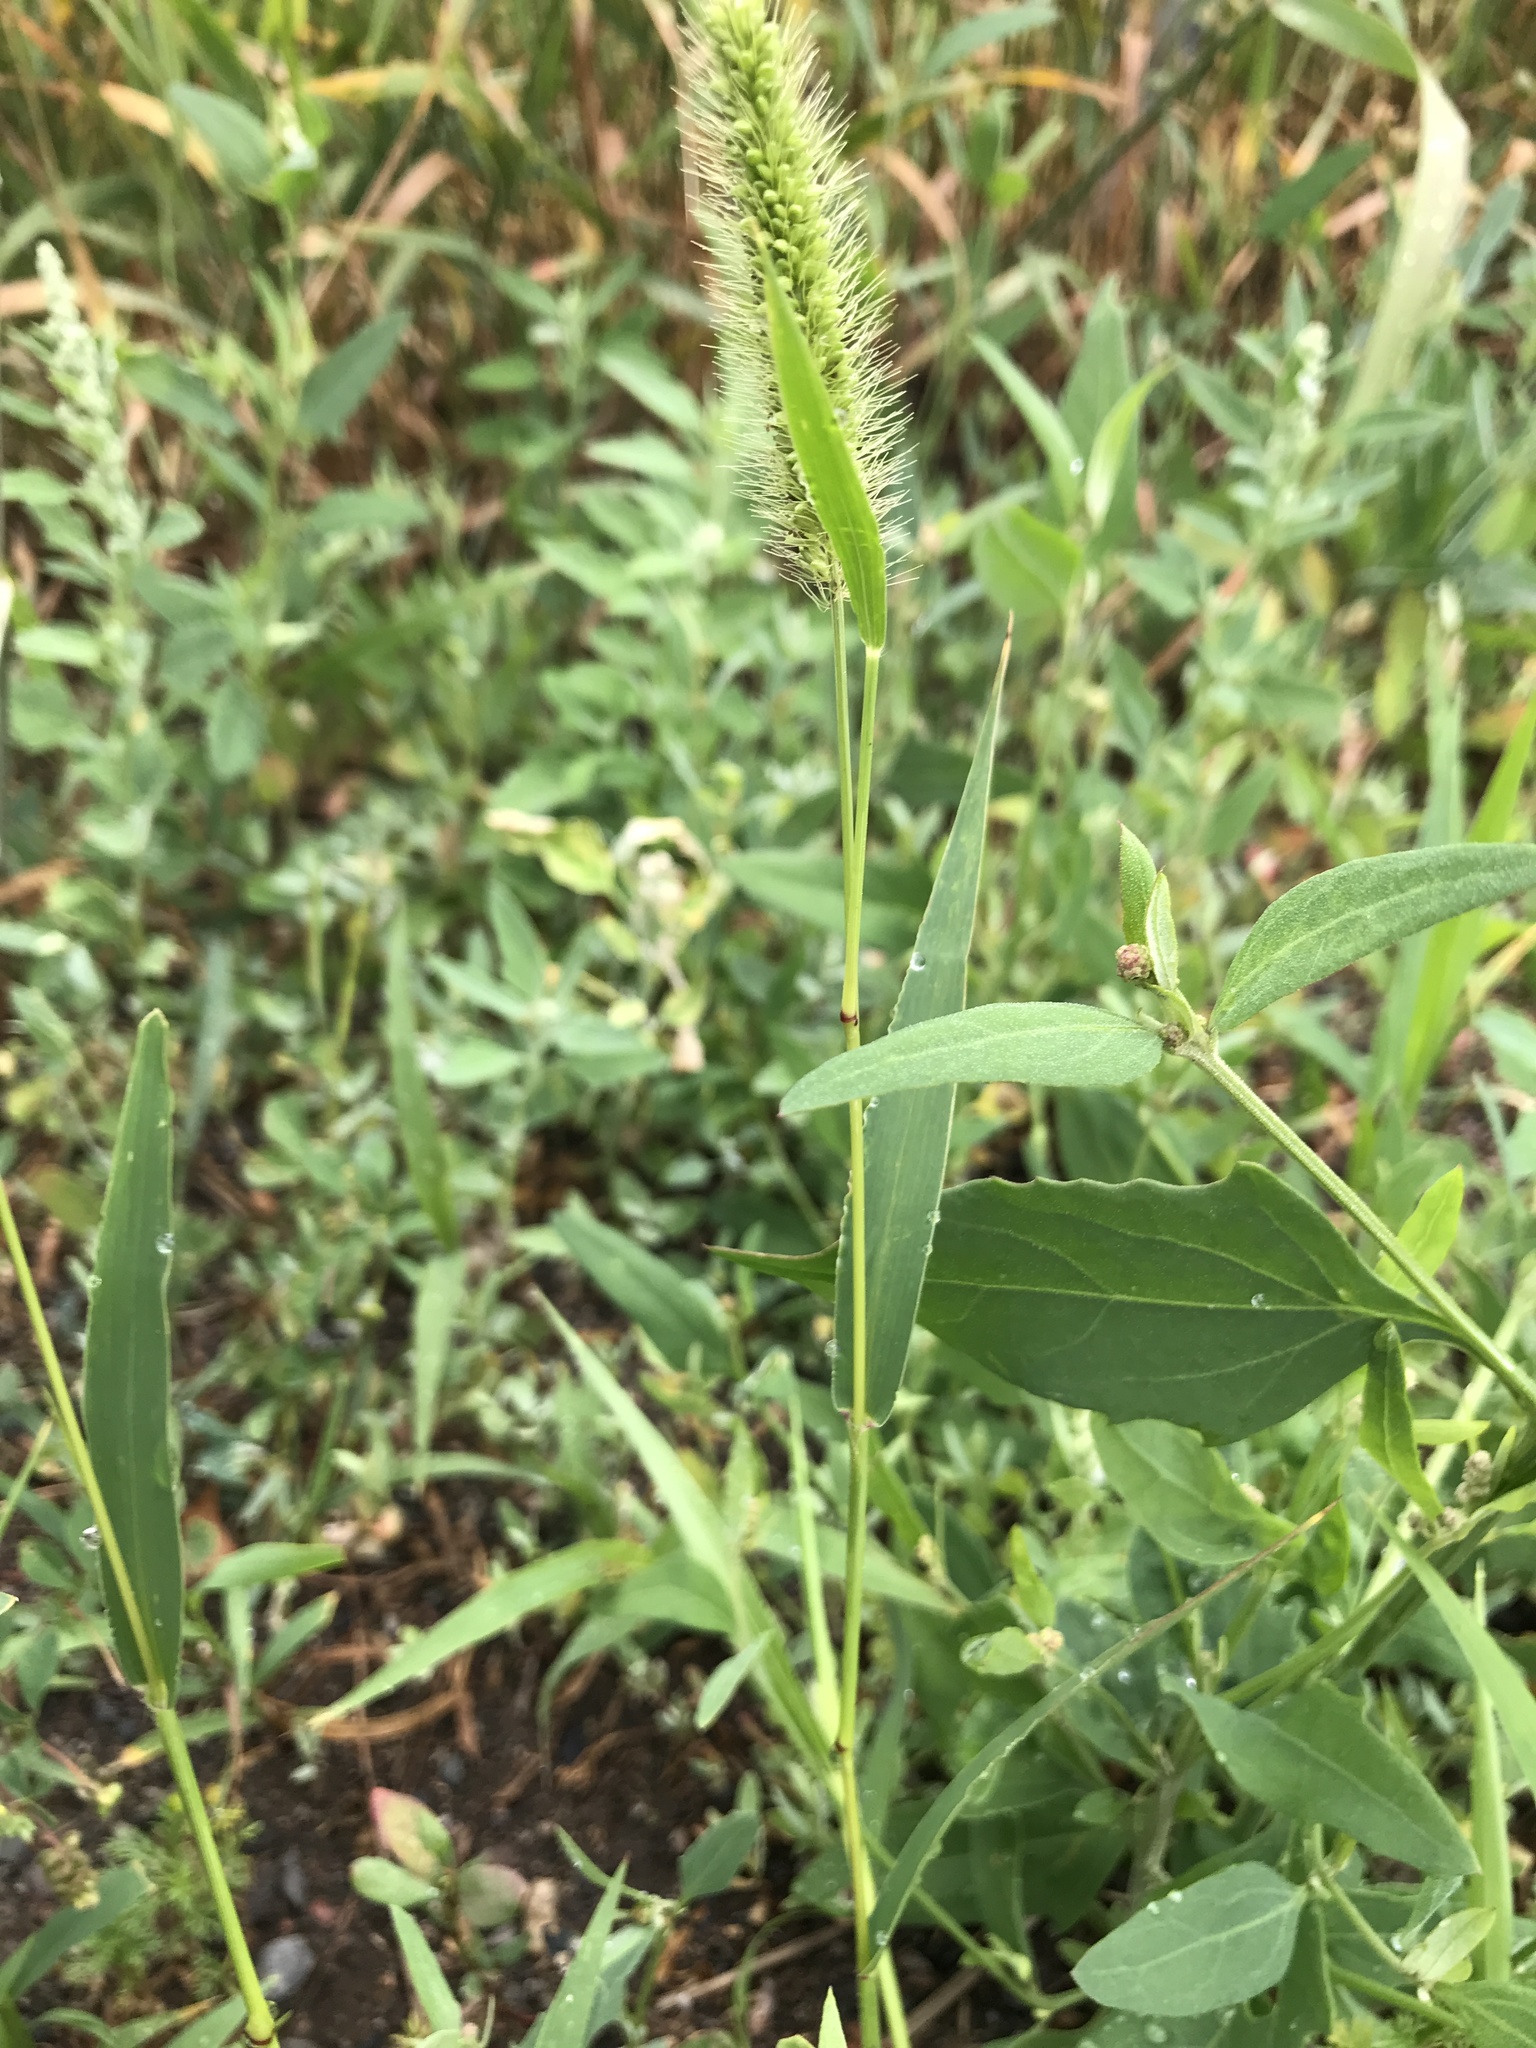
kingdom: Plantae
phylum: Tracheophyta
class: Liliopsida
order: Poales
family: Poaceae
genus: Setaria
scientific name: Setaria viridis
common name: Green bristlegrass
